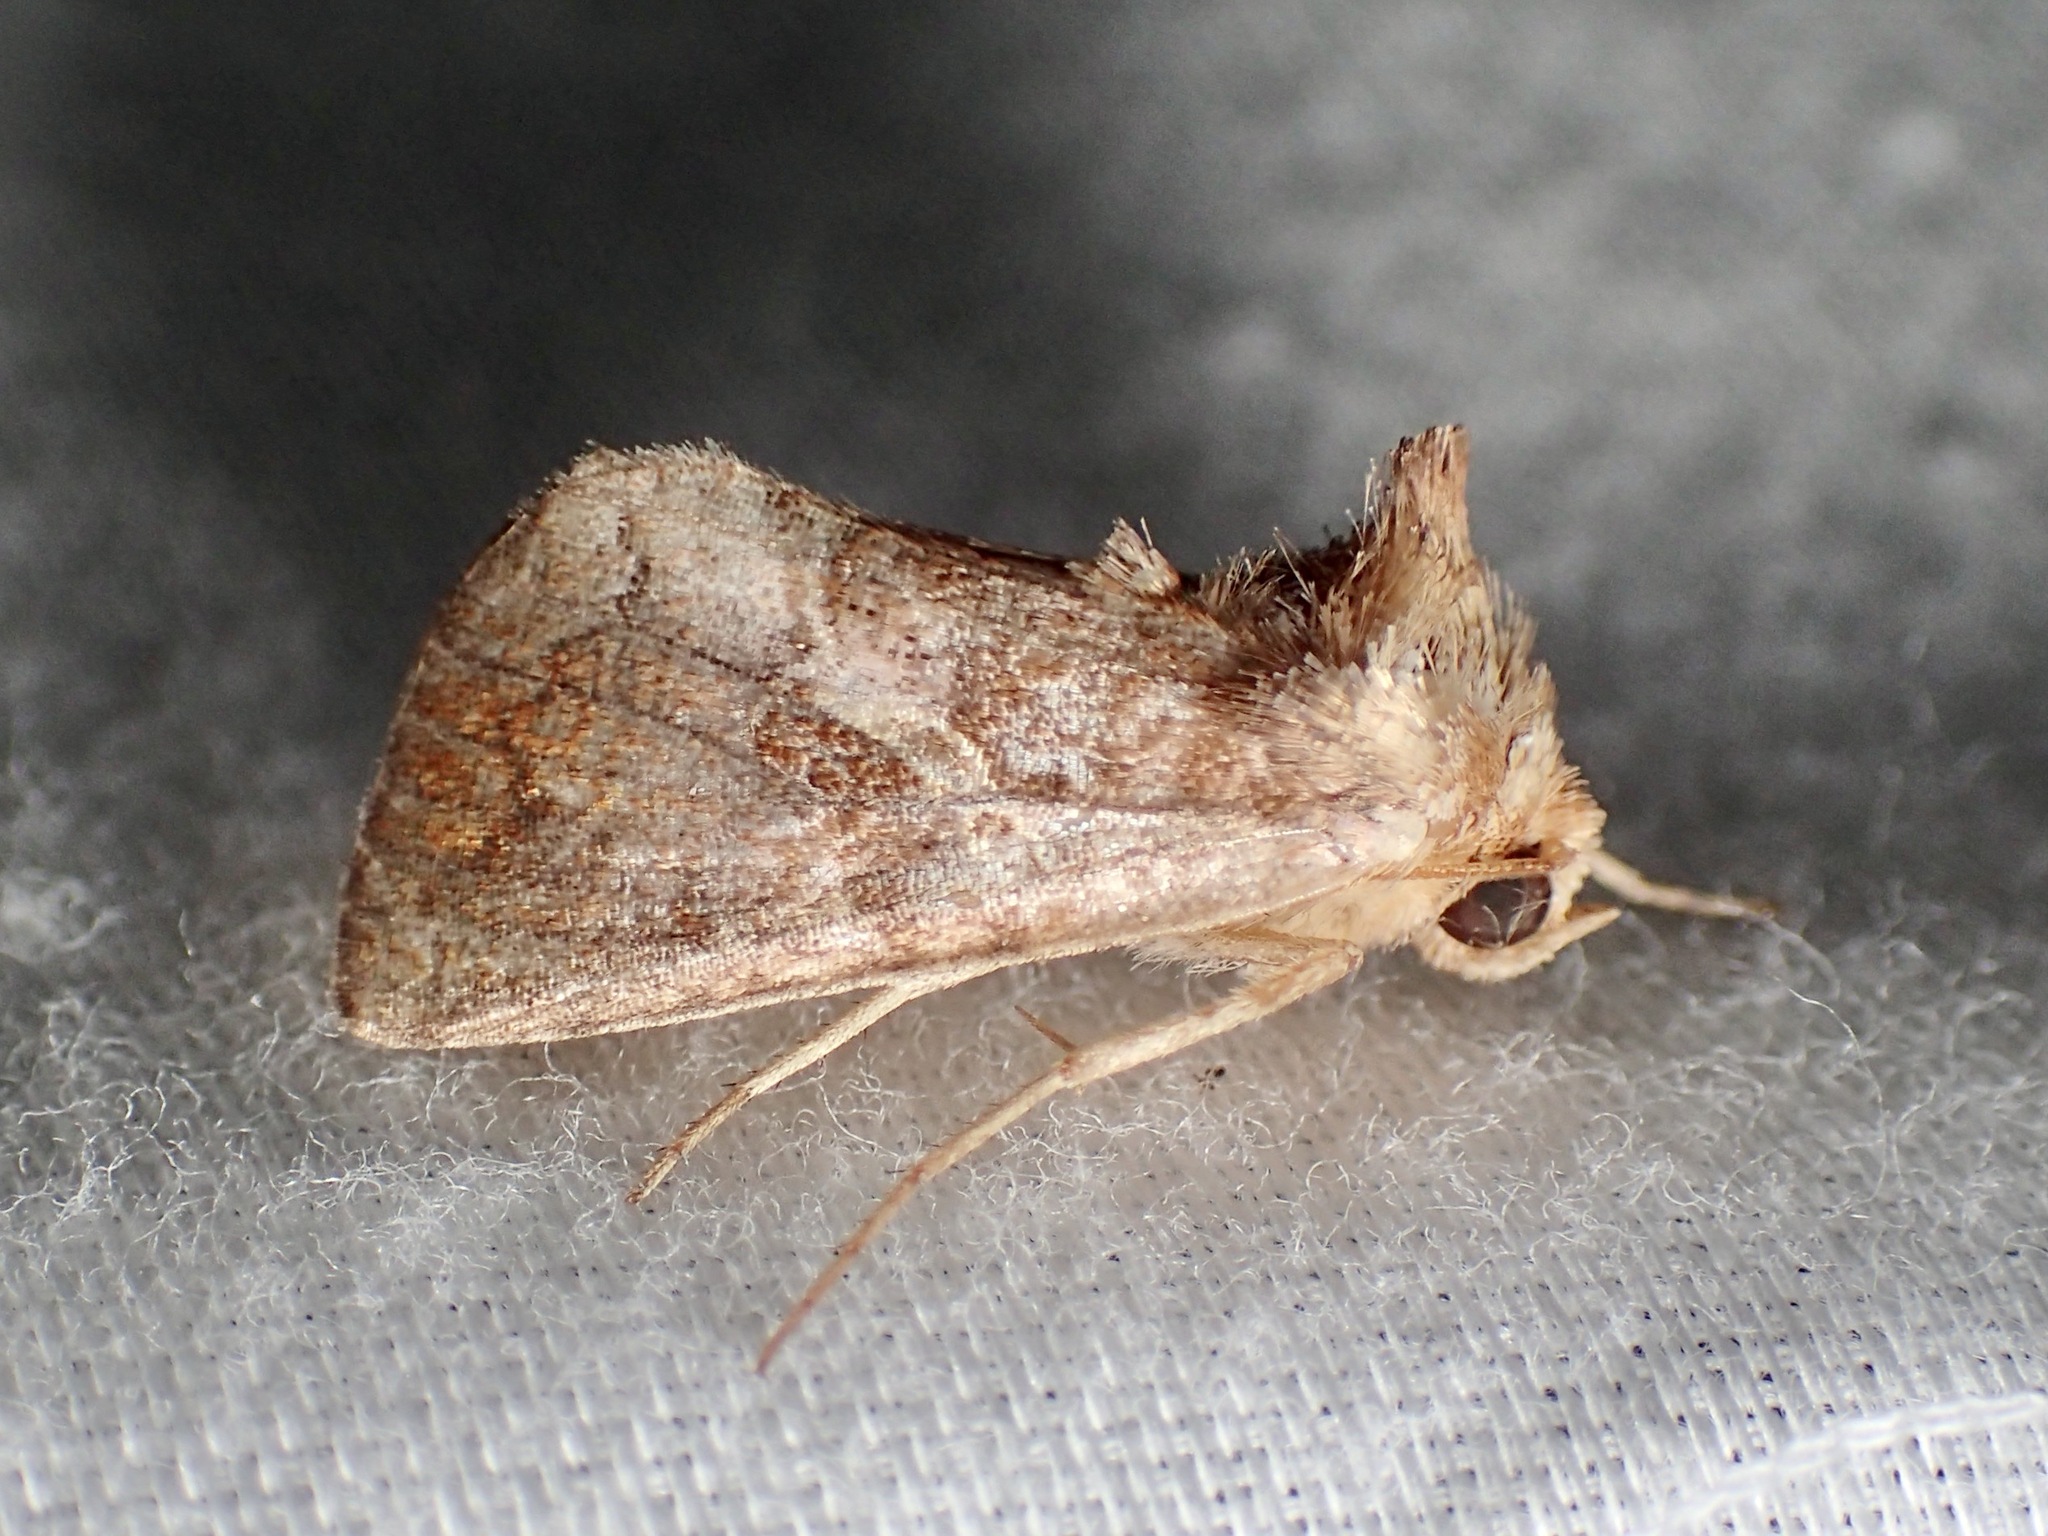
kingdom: Animalia
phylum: Arthropoda
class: Insecta
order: Lepidoptera
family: Noctuidae
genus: Zonoplusia
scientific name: Zonoplusia ochreata
